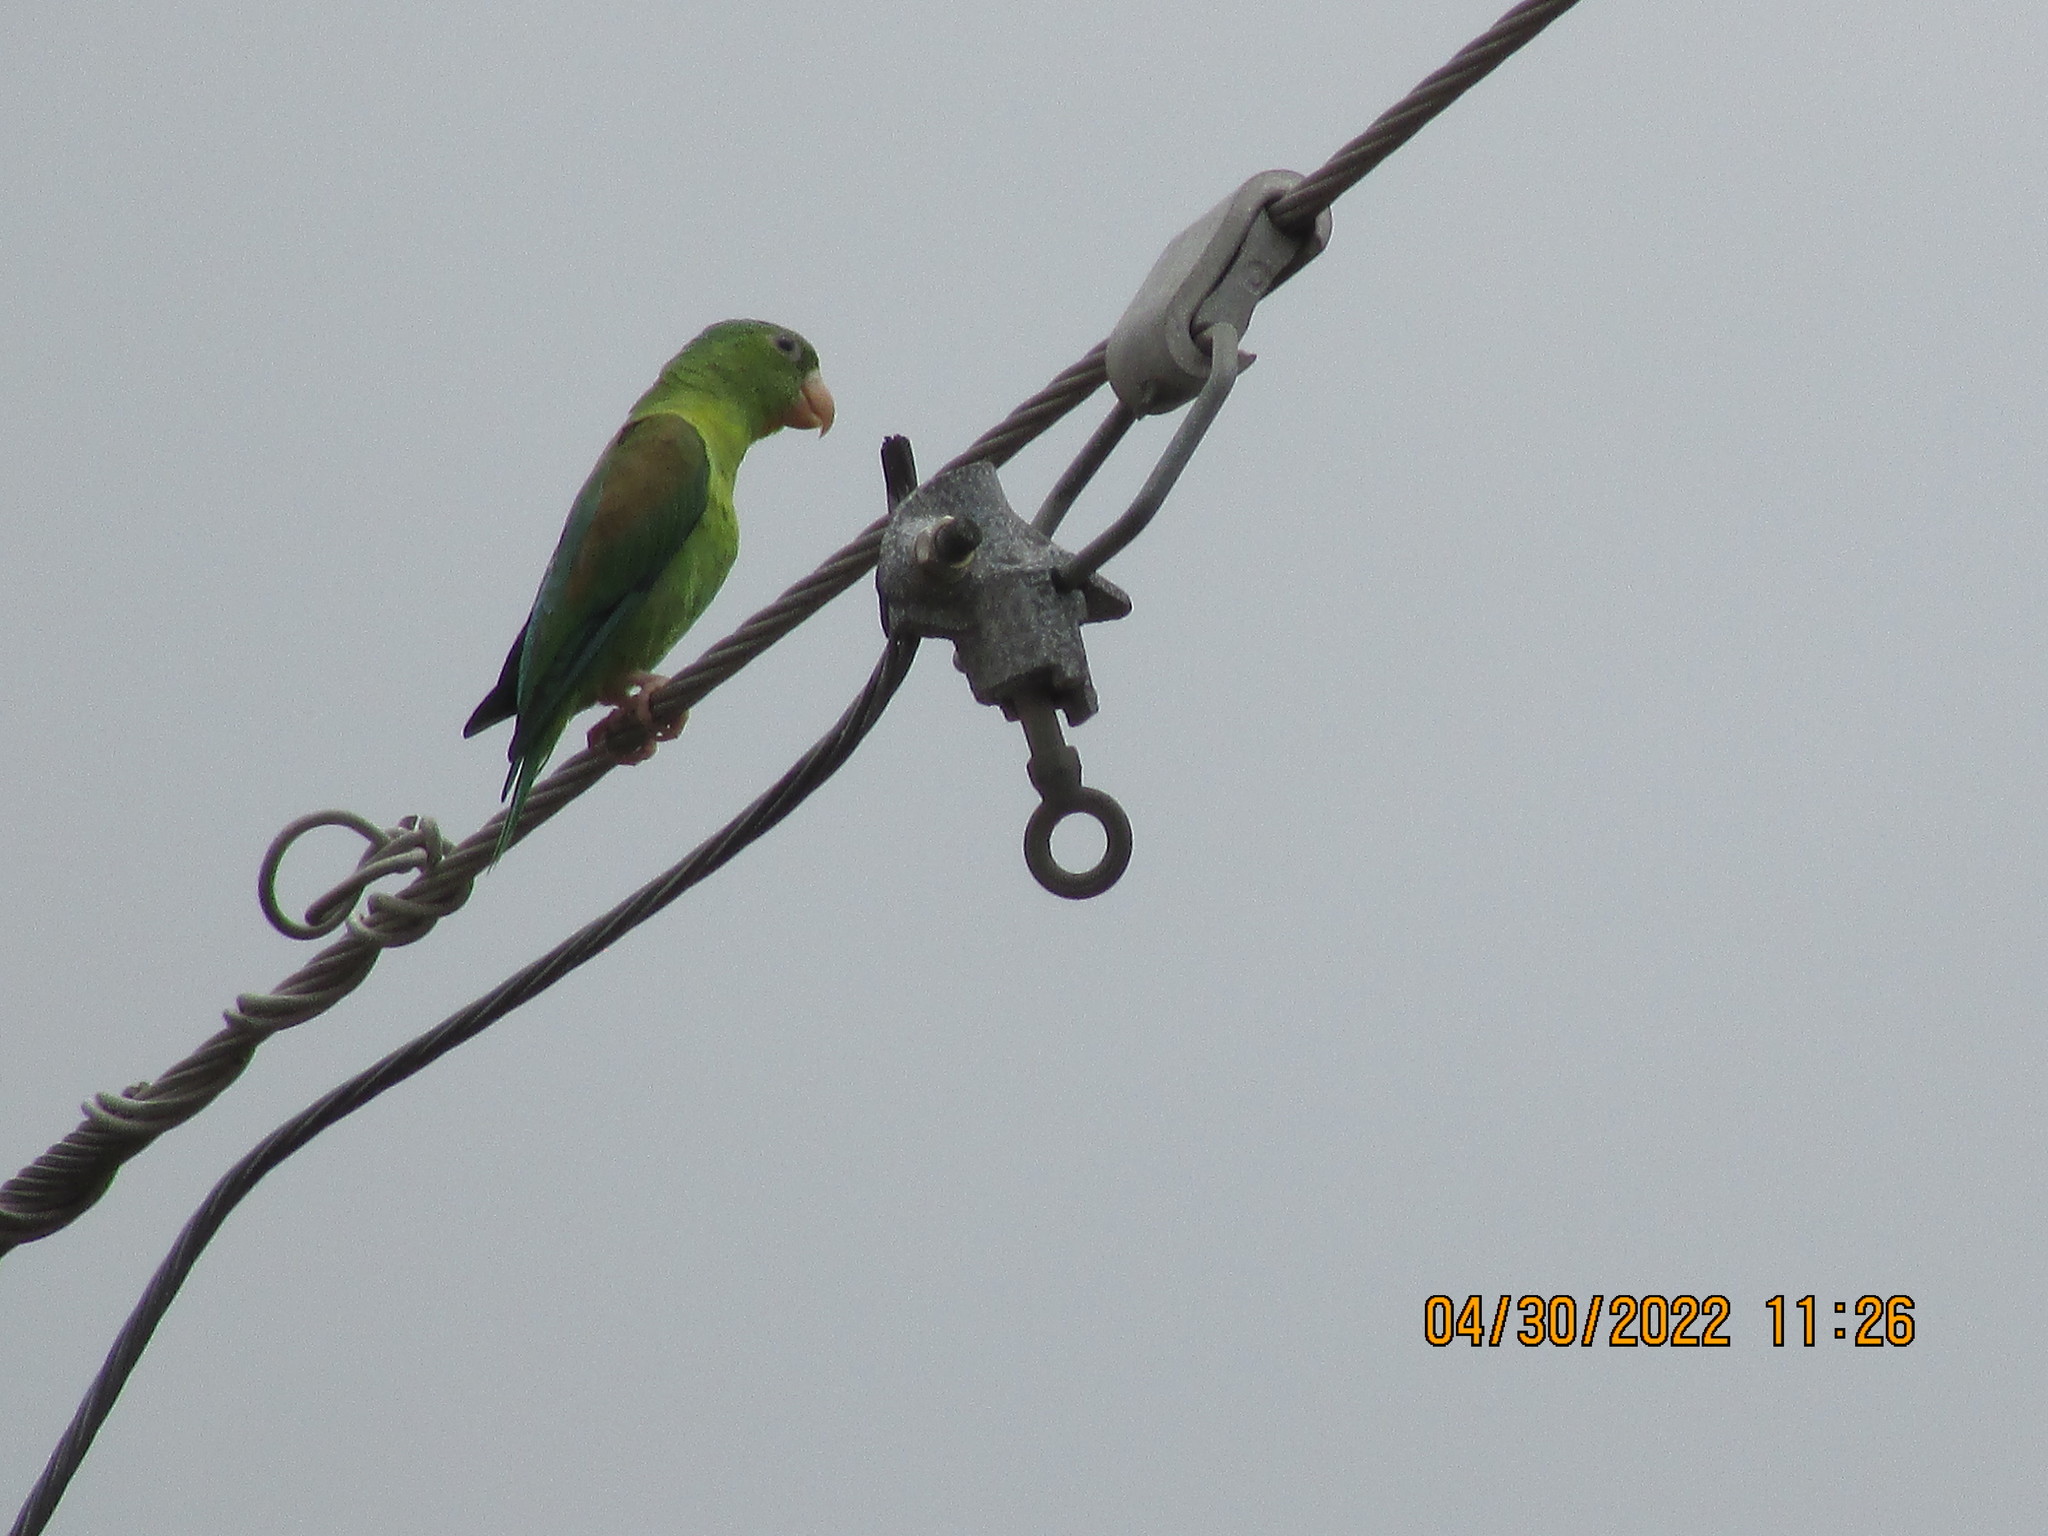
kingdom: Animalia
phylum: Chordata
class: Aves
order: Psittaciformes
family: Psittacidae
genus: Brotogeris
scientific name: Brotogeris jugularis
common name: Orange-chinned parakeet
